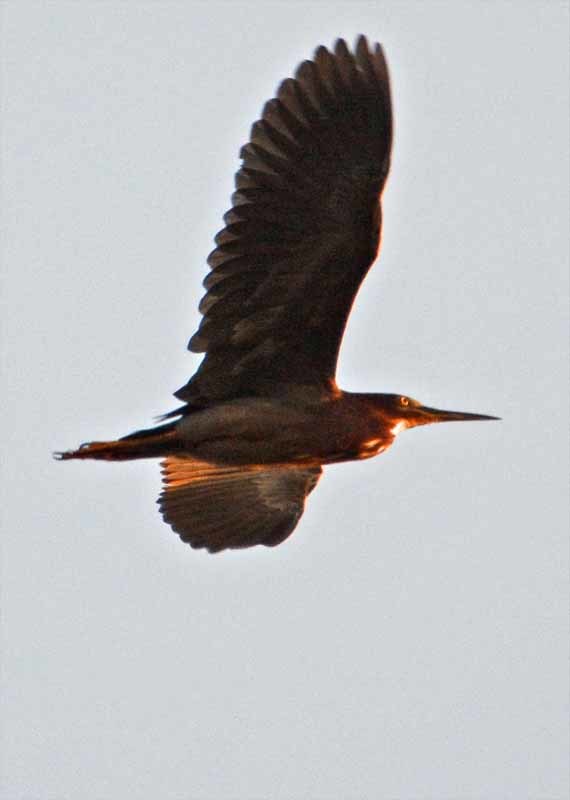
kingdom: Animalia
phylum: Chordata
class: Aves
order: Pelecaniformes
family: Ardeidae
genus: Butorides
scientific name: Butorides virescens
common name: Green heron
